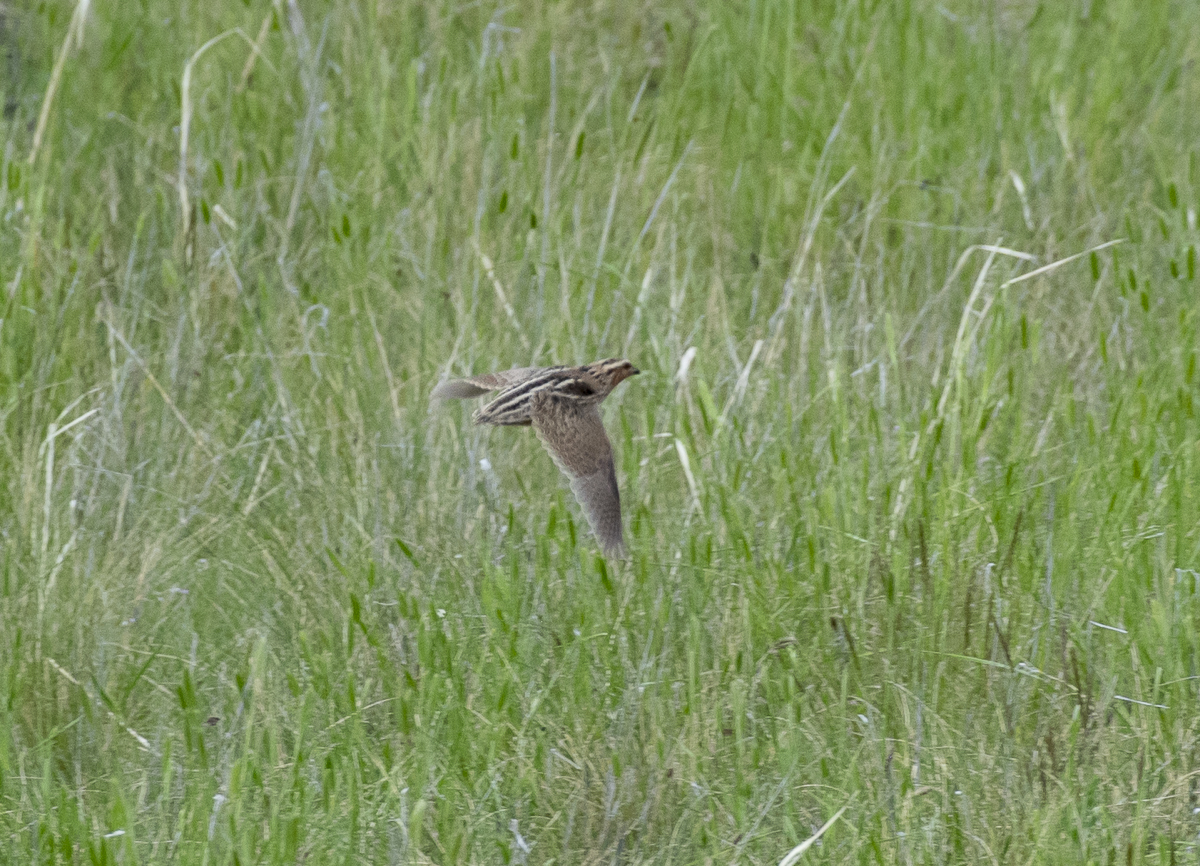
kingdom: Animalia
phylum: Chordata
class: Aves
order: Galliformes
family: Phasianidae
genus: Coturnix
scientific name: Coturnix japonica
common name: Japanese quail
